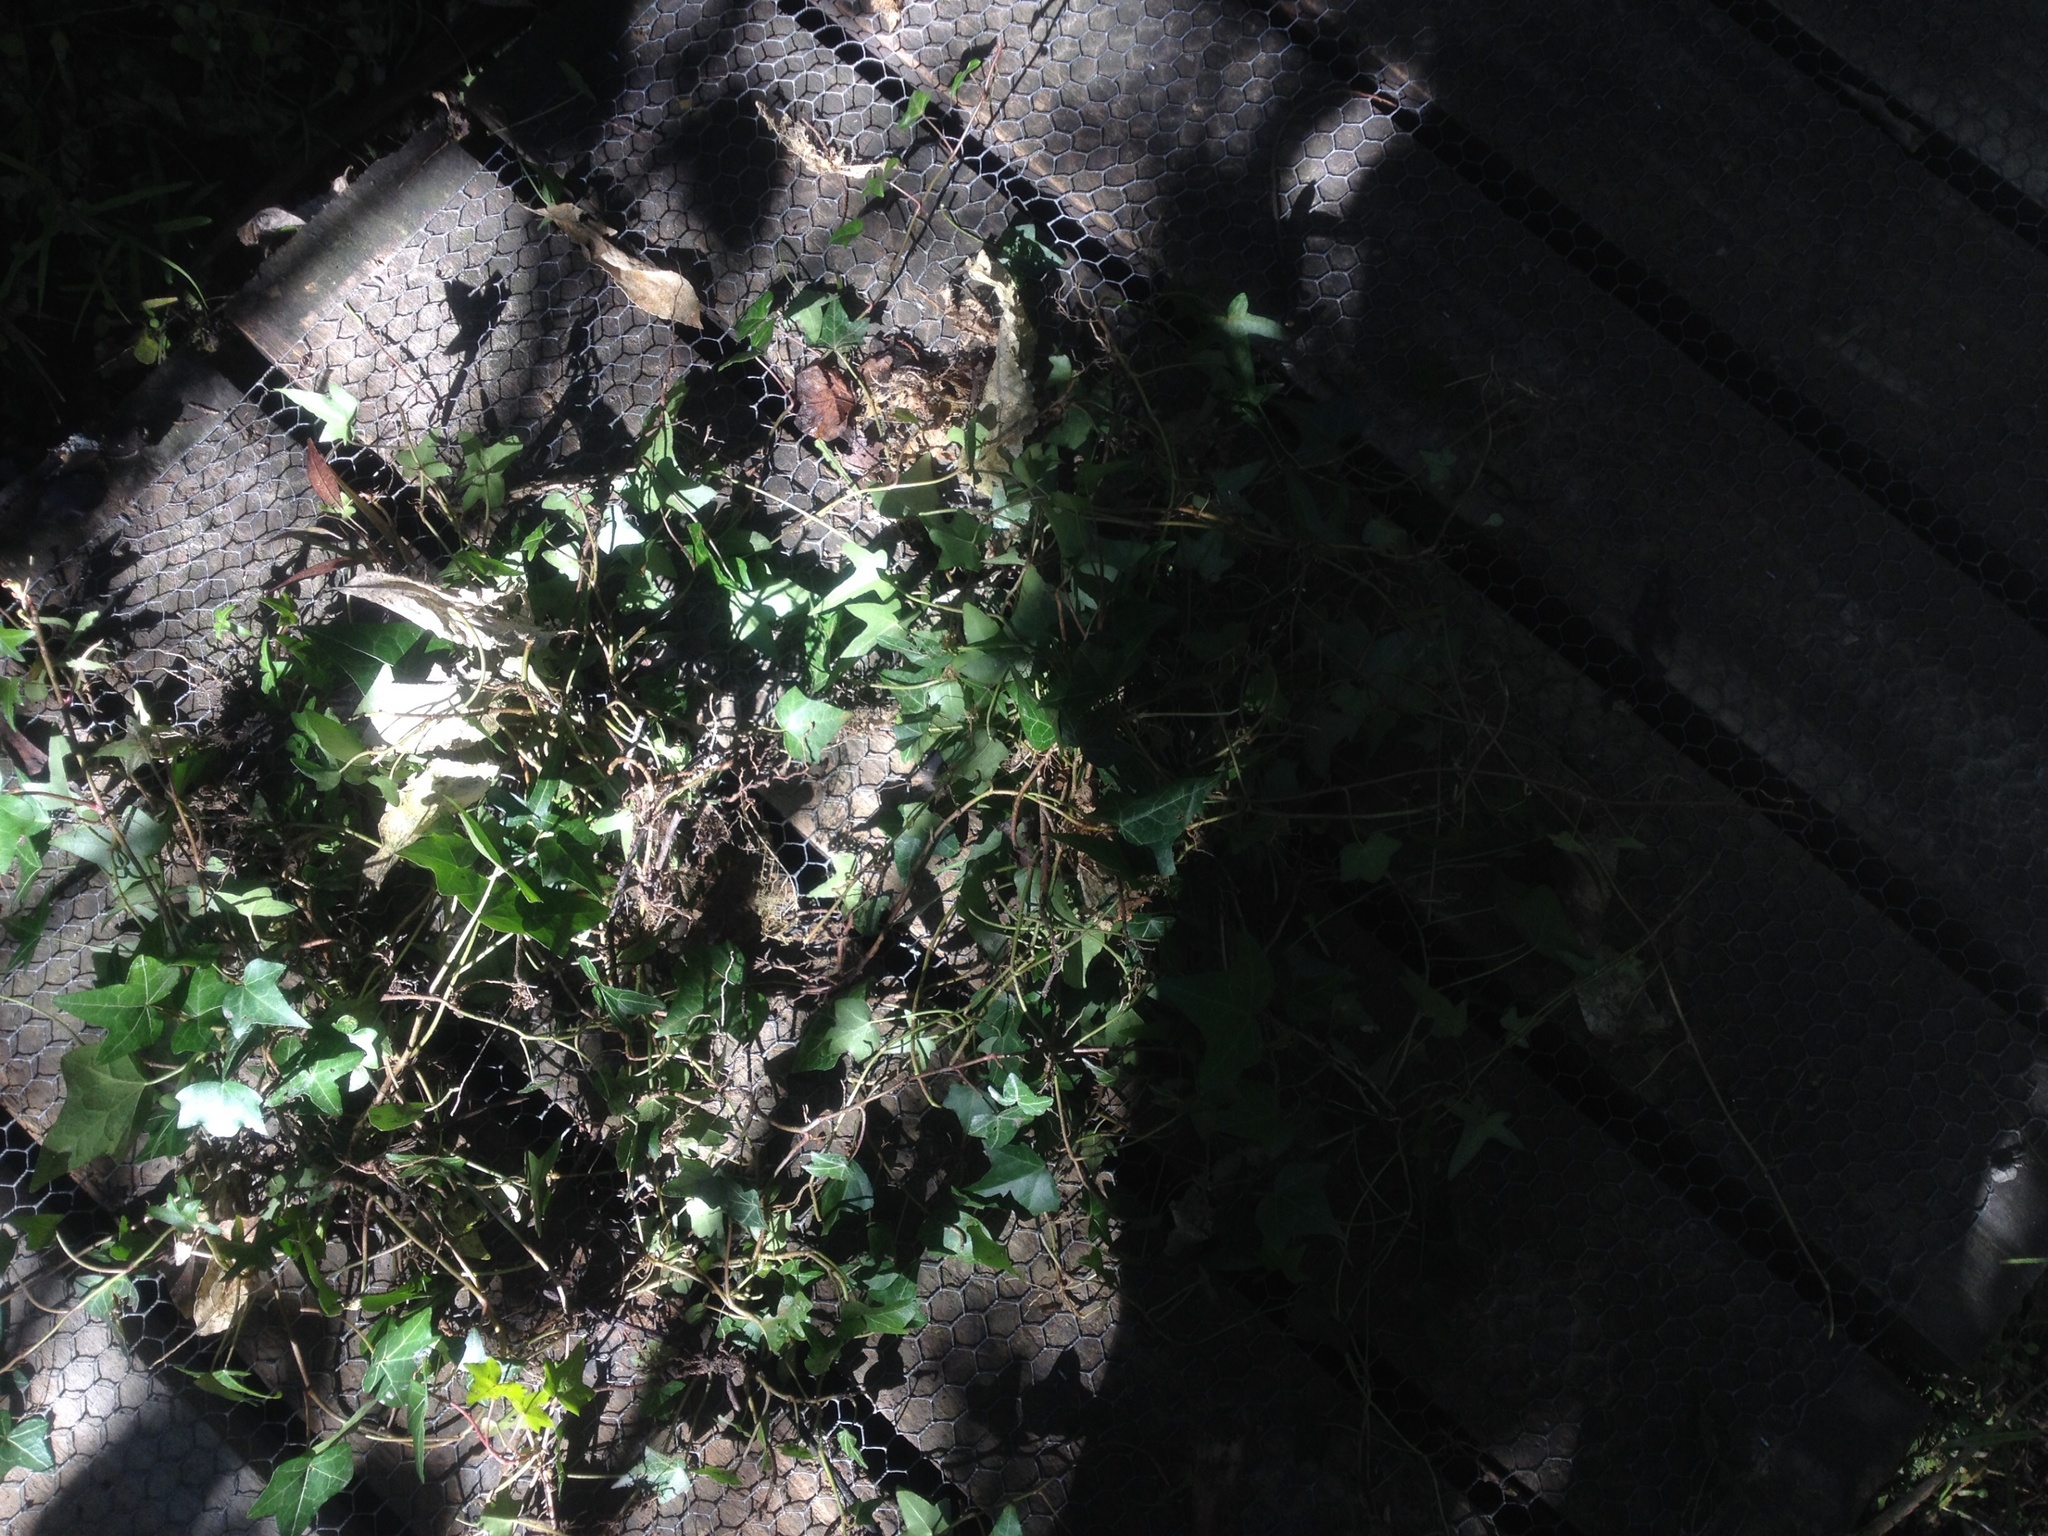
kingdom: Plantae
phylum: Tracheophyta
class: Magnoliopsida
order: Apiales
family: Araliaceae
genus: Hedera
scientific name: Hedera helix
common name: Ivy
